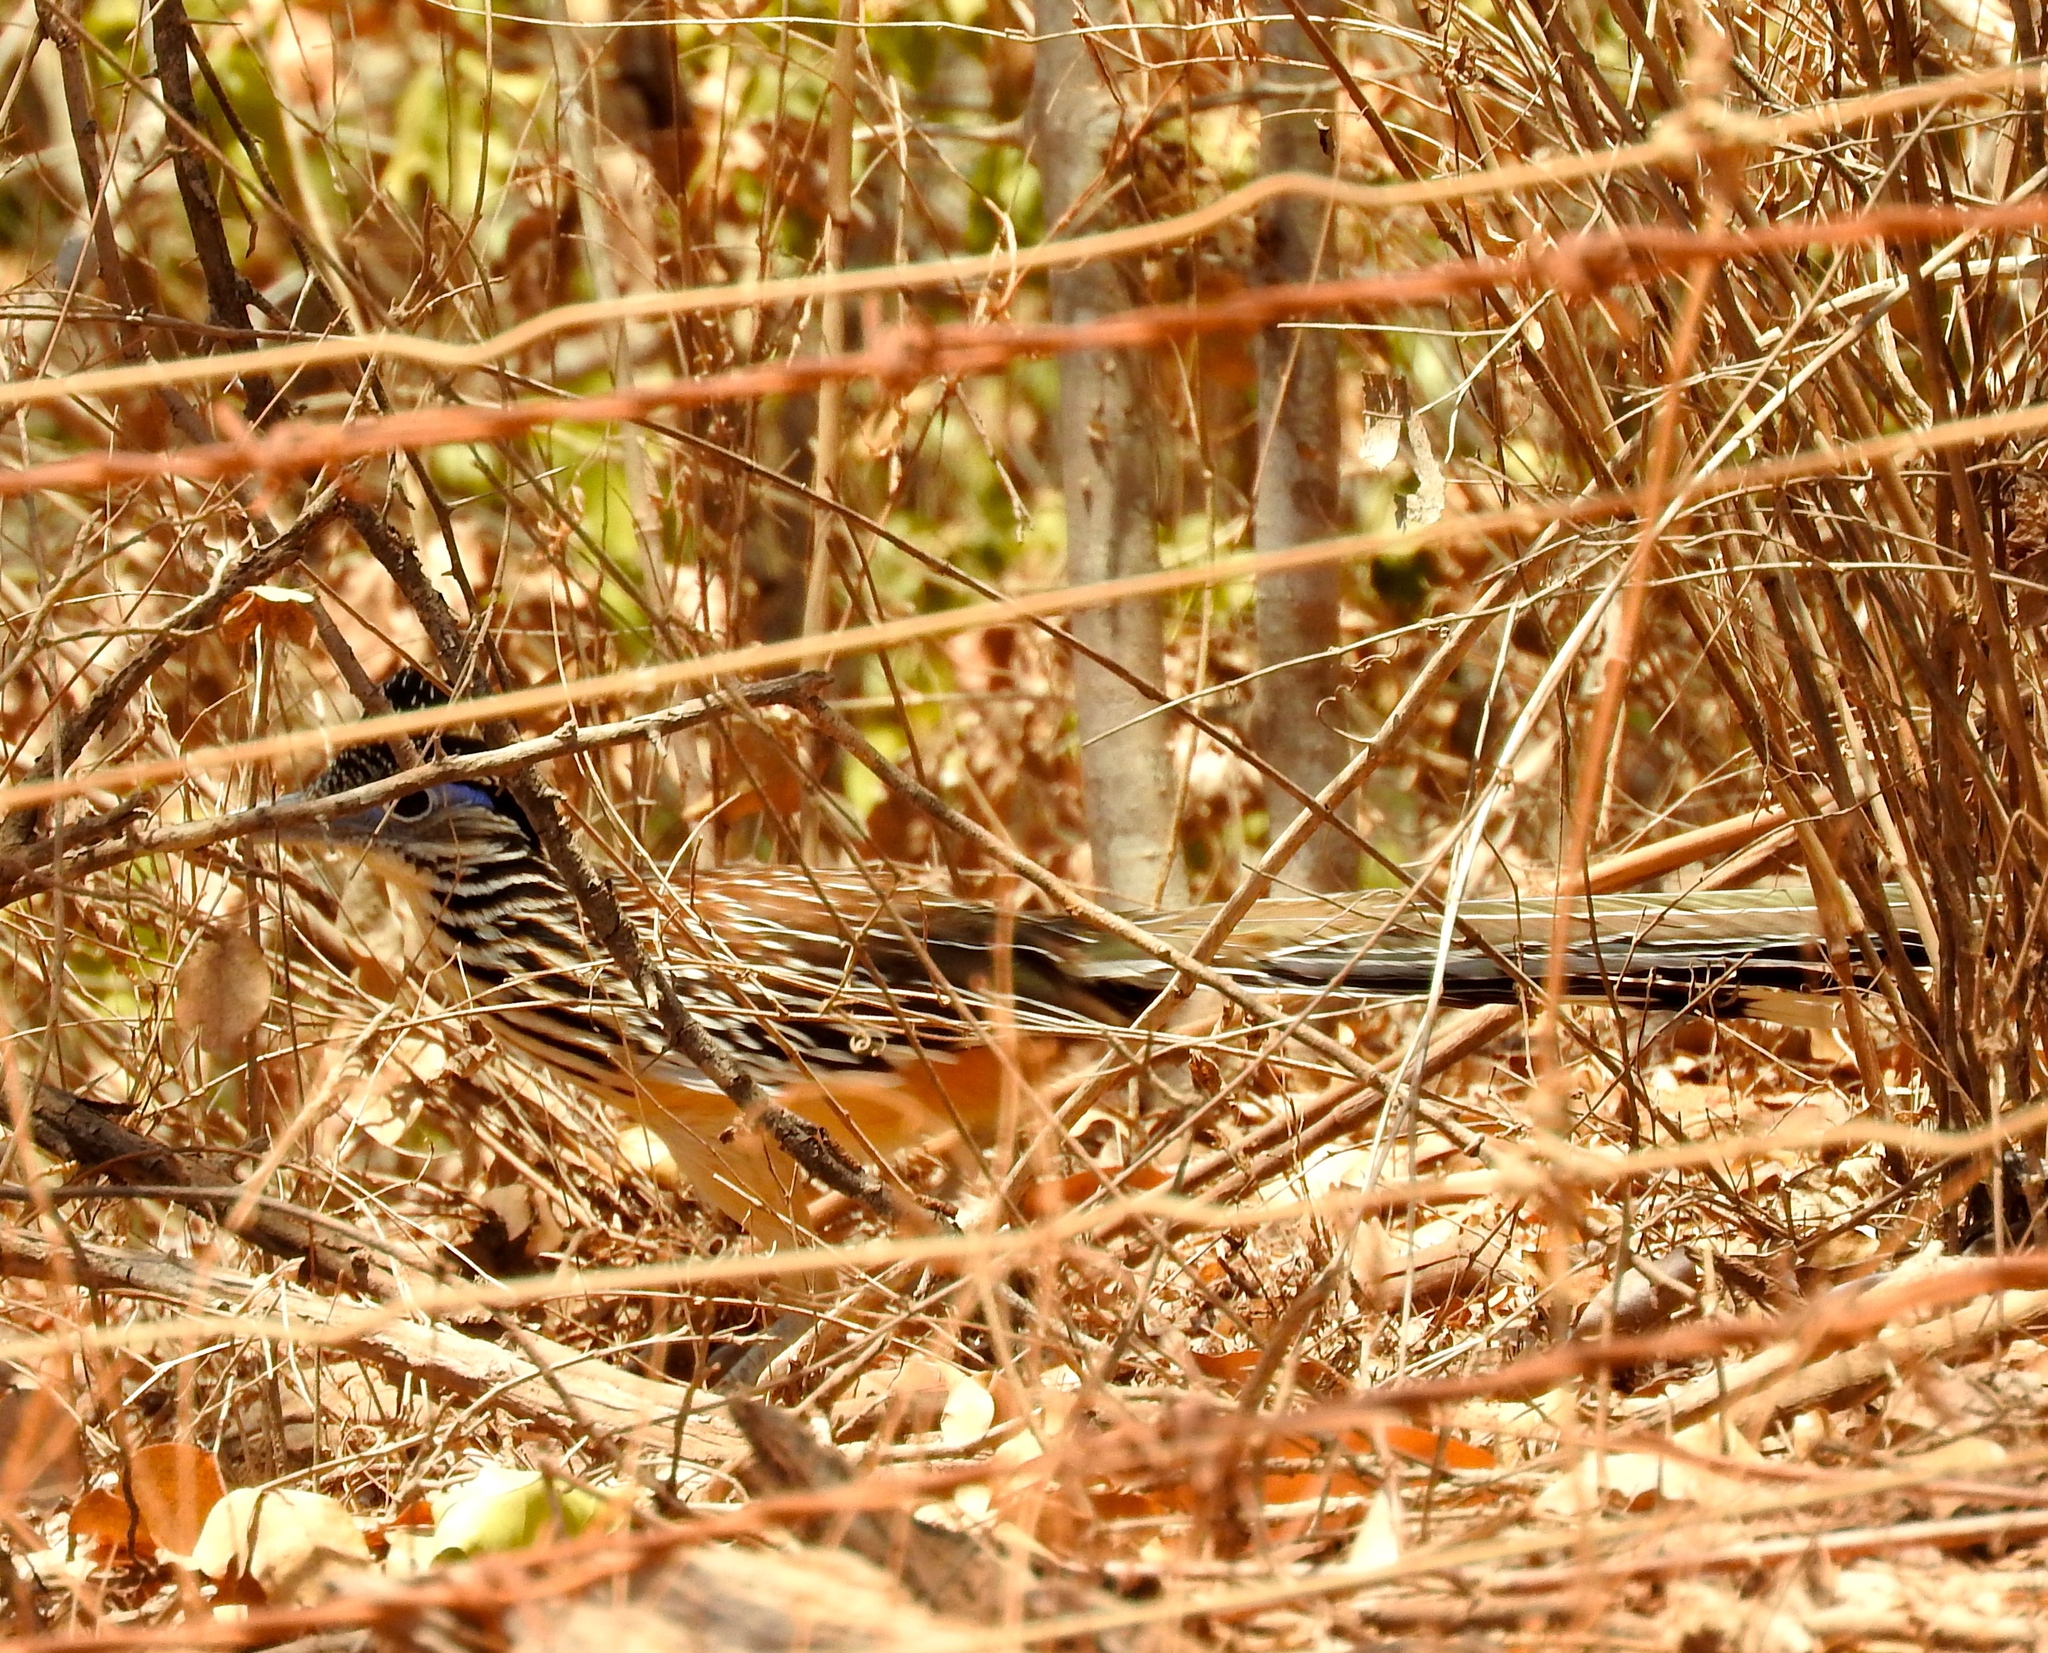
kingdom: Animalia
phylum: Chordata
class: Aves
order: Cuculiformes
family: Cuculidae
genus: Geococcyx
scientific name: Geococcyx velox
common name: Lesser roadrunner
